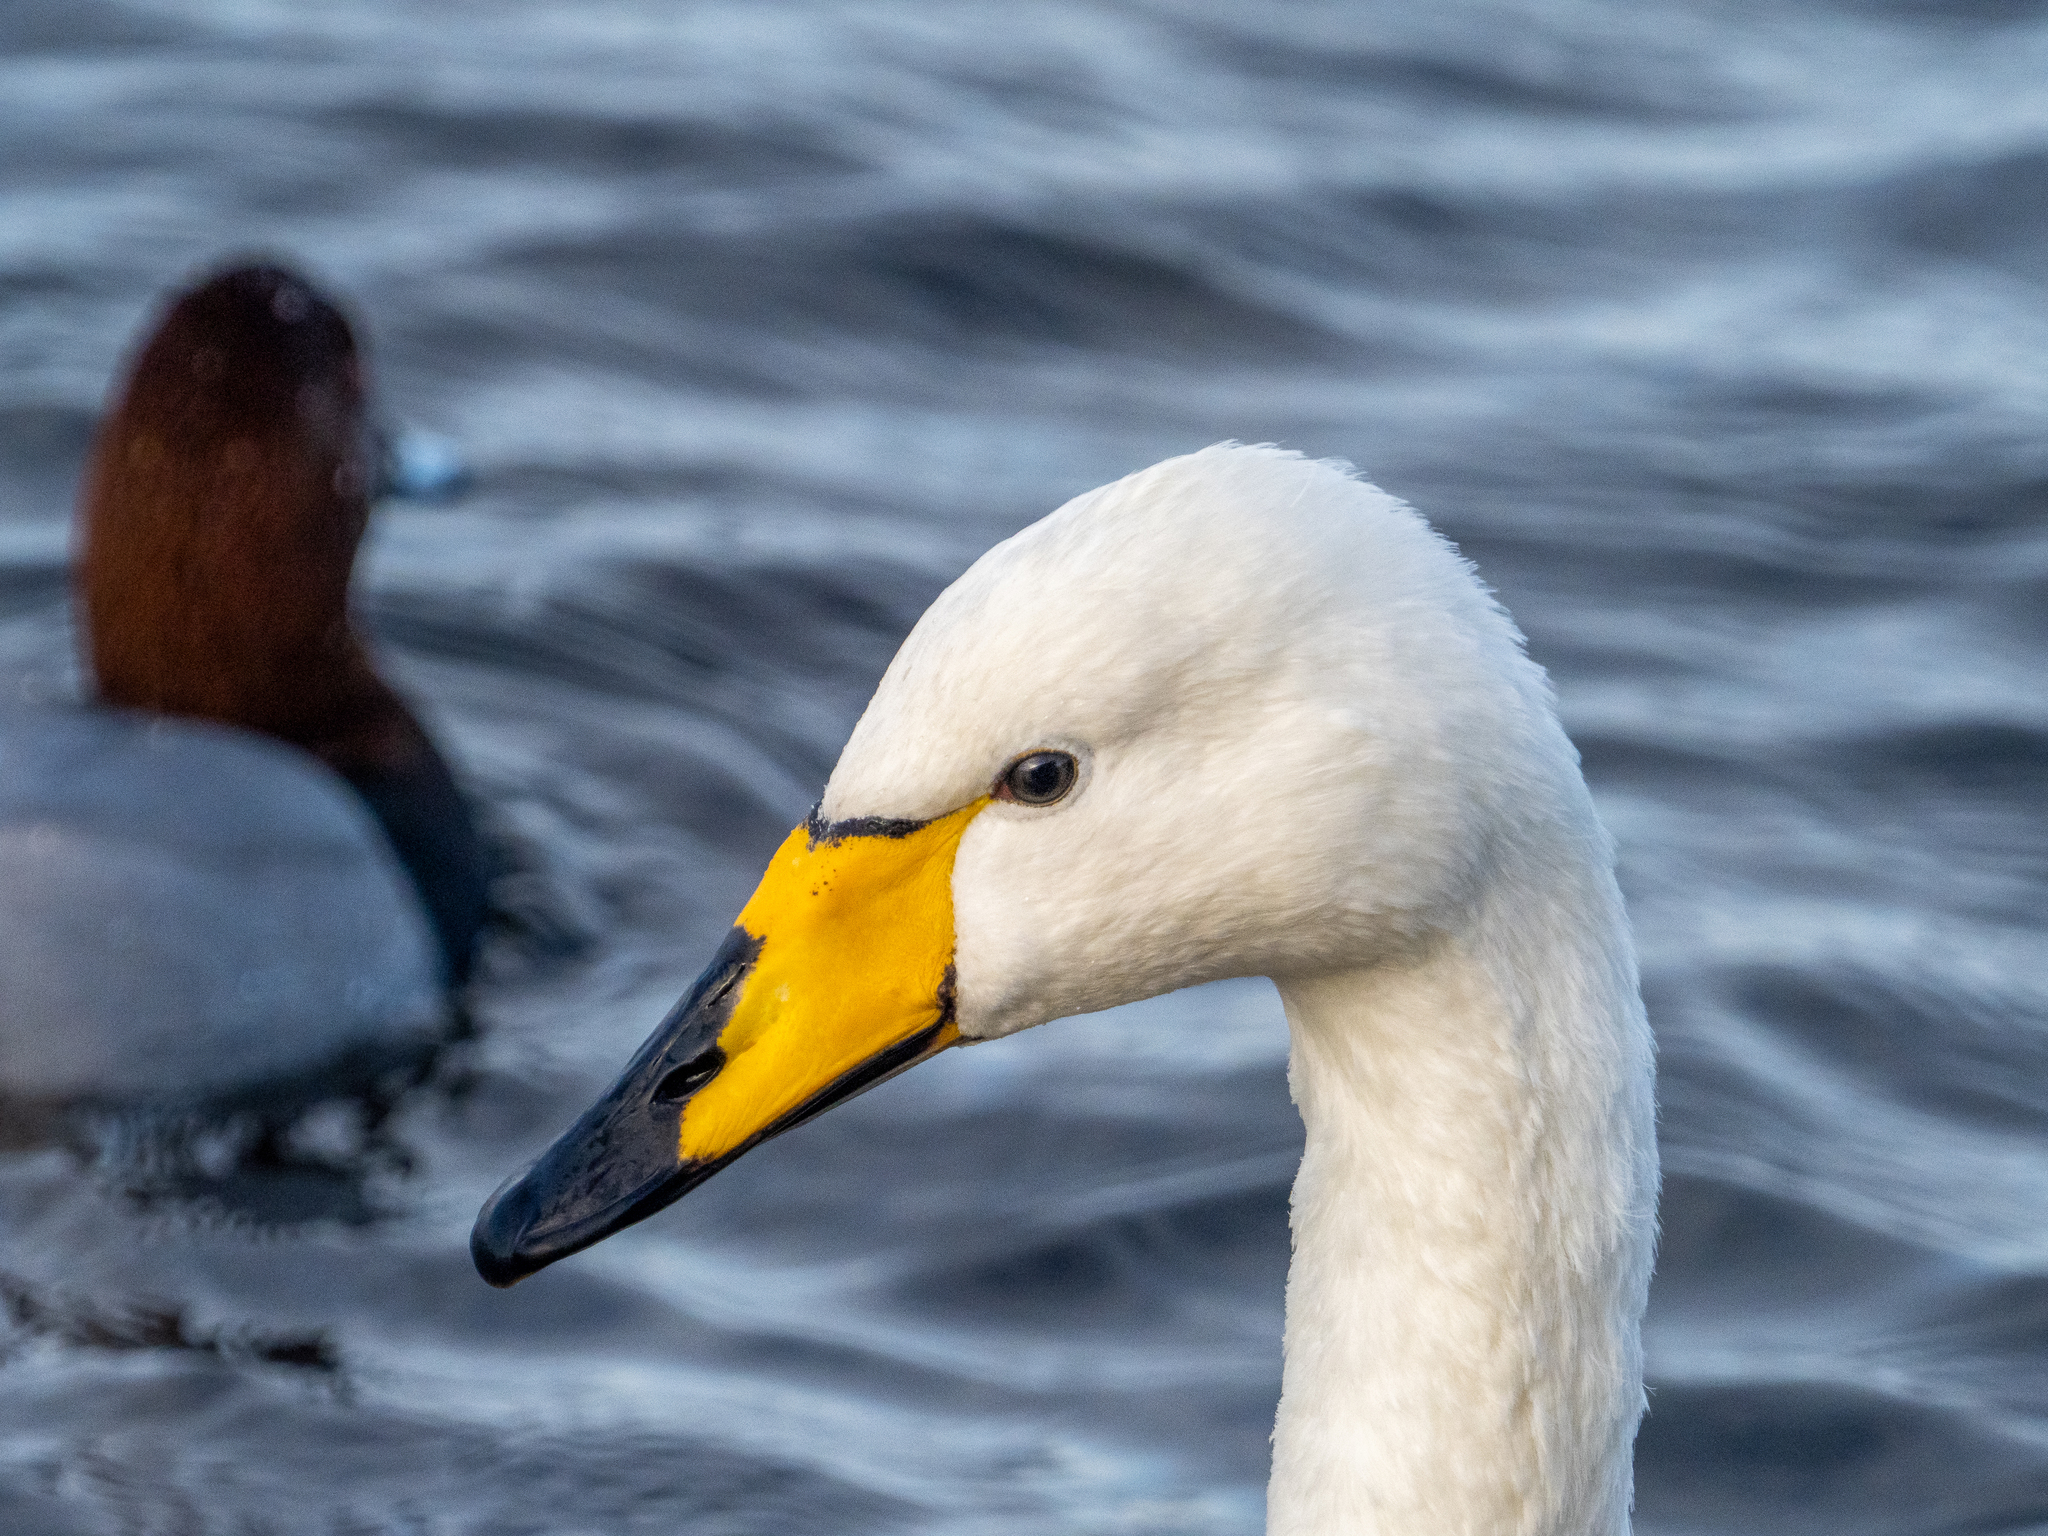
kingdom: Animalia
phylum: Chordata
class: Aves
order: Anseriformes
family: Anatidae
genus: Cygnus
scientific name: Cygnus cygnus
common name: Whooper swan
